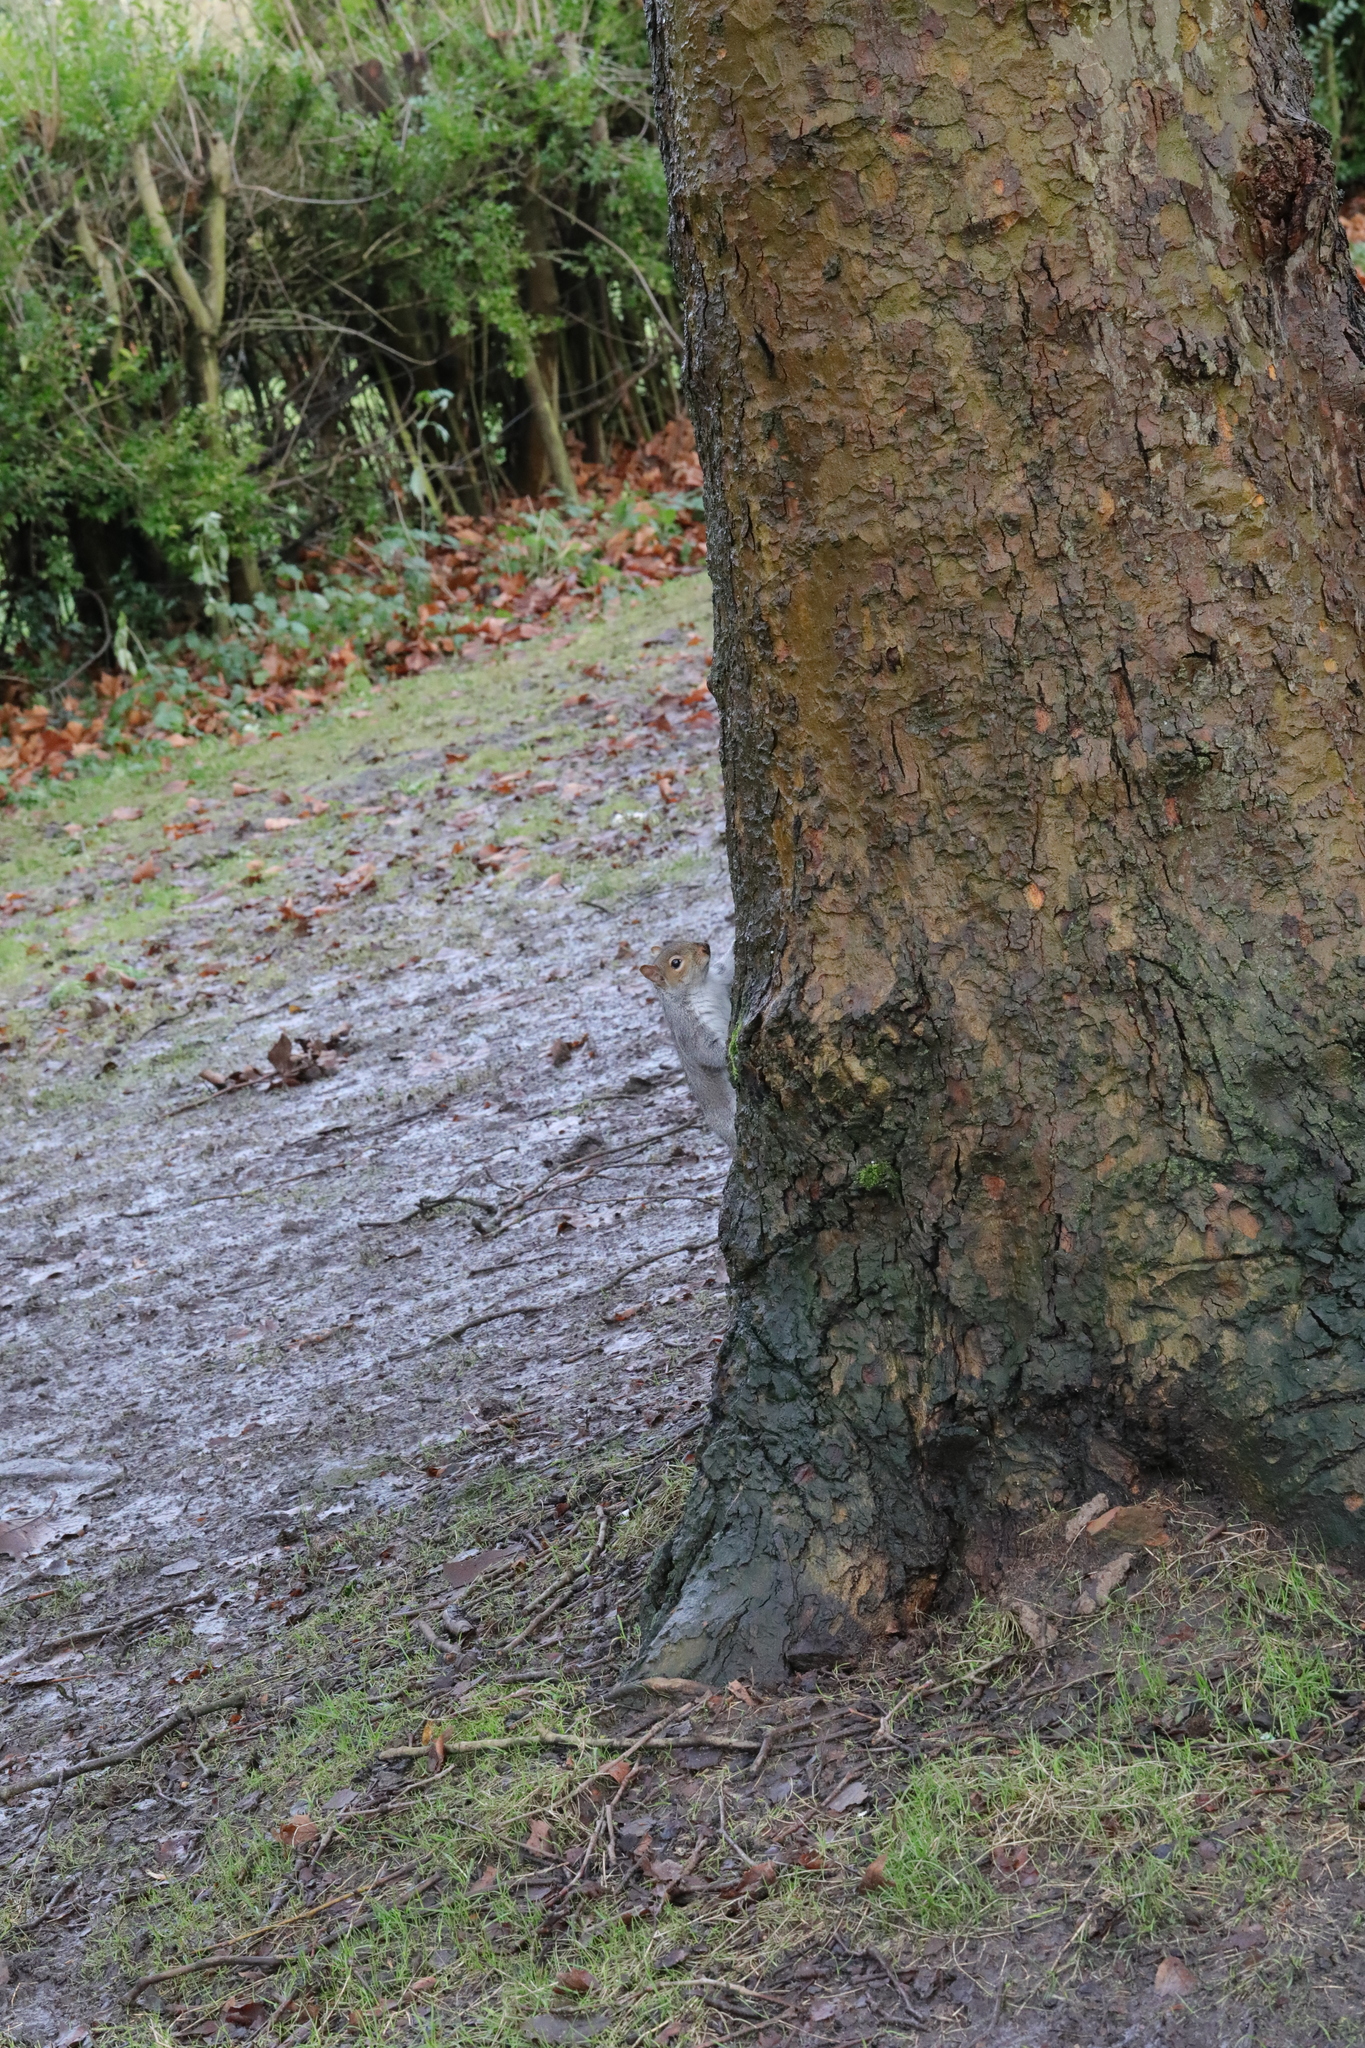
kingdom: Animalia
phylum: Chordata
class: Mammalia
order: Rodentia
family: Sciuridae
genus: Sciurus
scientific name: Sciurus carolinensis
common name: Eastern gray squirrel
